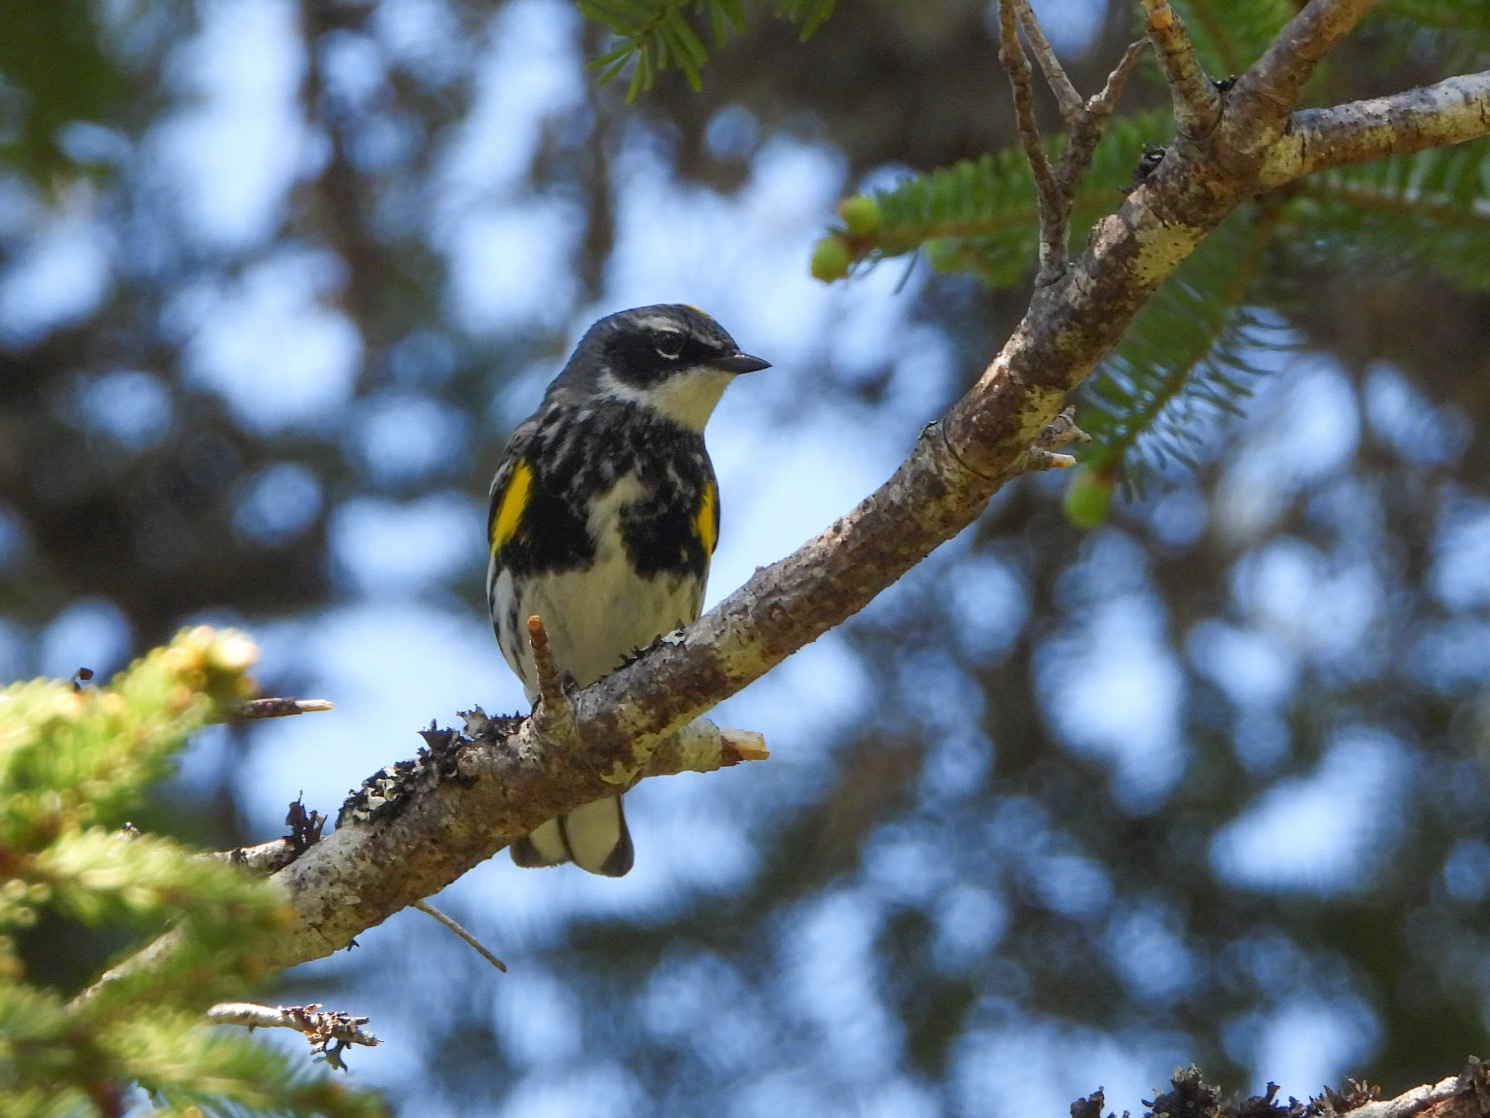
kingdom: Animalia
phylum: Chordata
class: Aves
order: Passeriformes
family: Parulidae
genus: Setophaga
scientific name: Setophaga coronata
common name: Myrtle warbler
